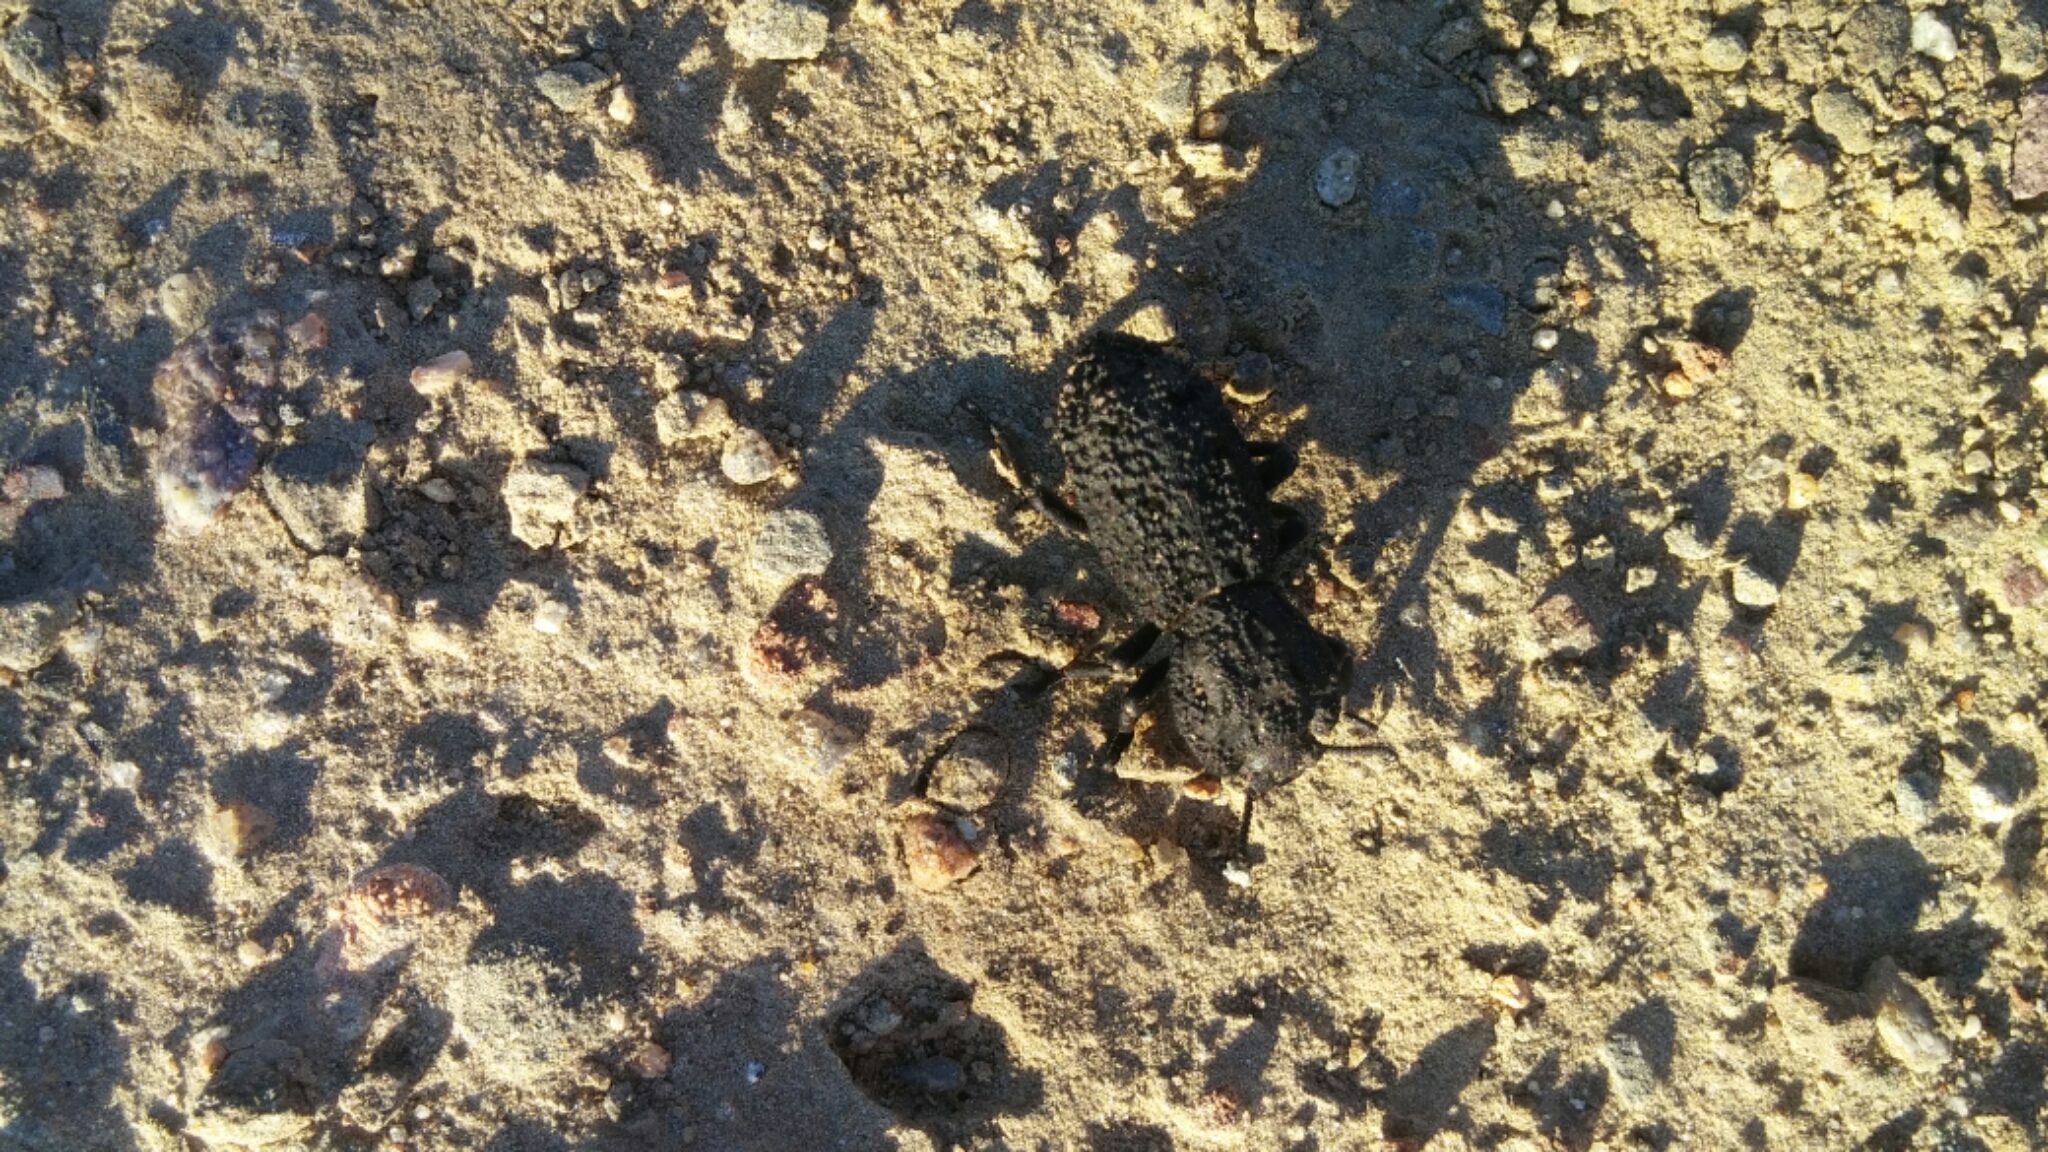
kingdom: Animalia
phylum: Arthropoda
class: Insecta
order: Coleoptera
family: Zopheridae
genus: Phloeodes
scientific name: Phloeodes diabolicus
